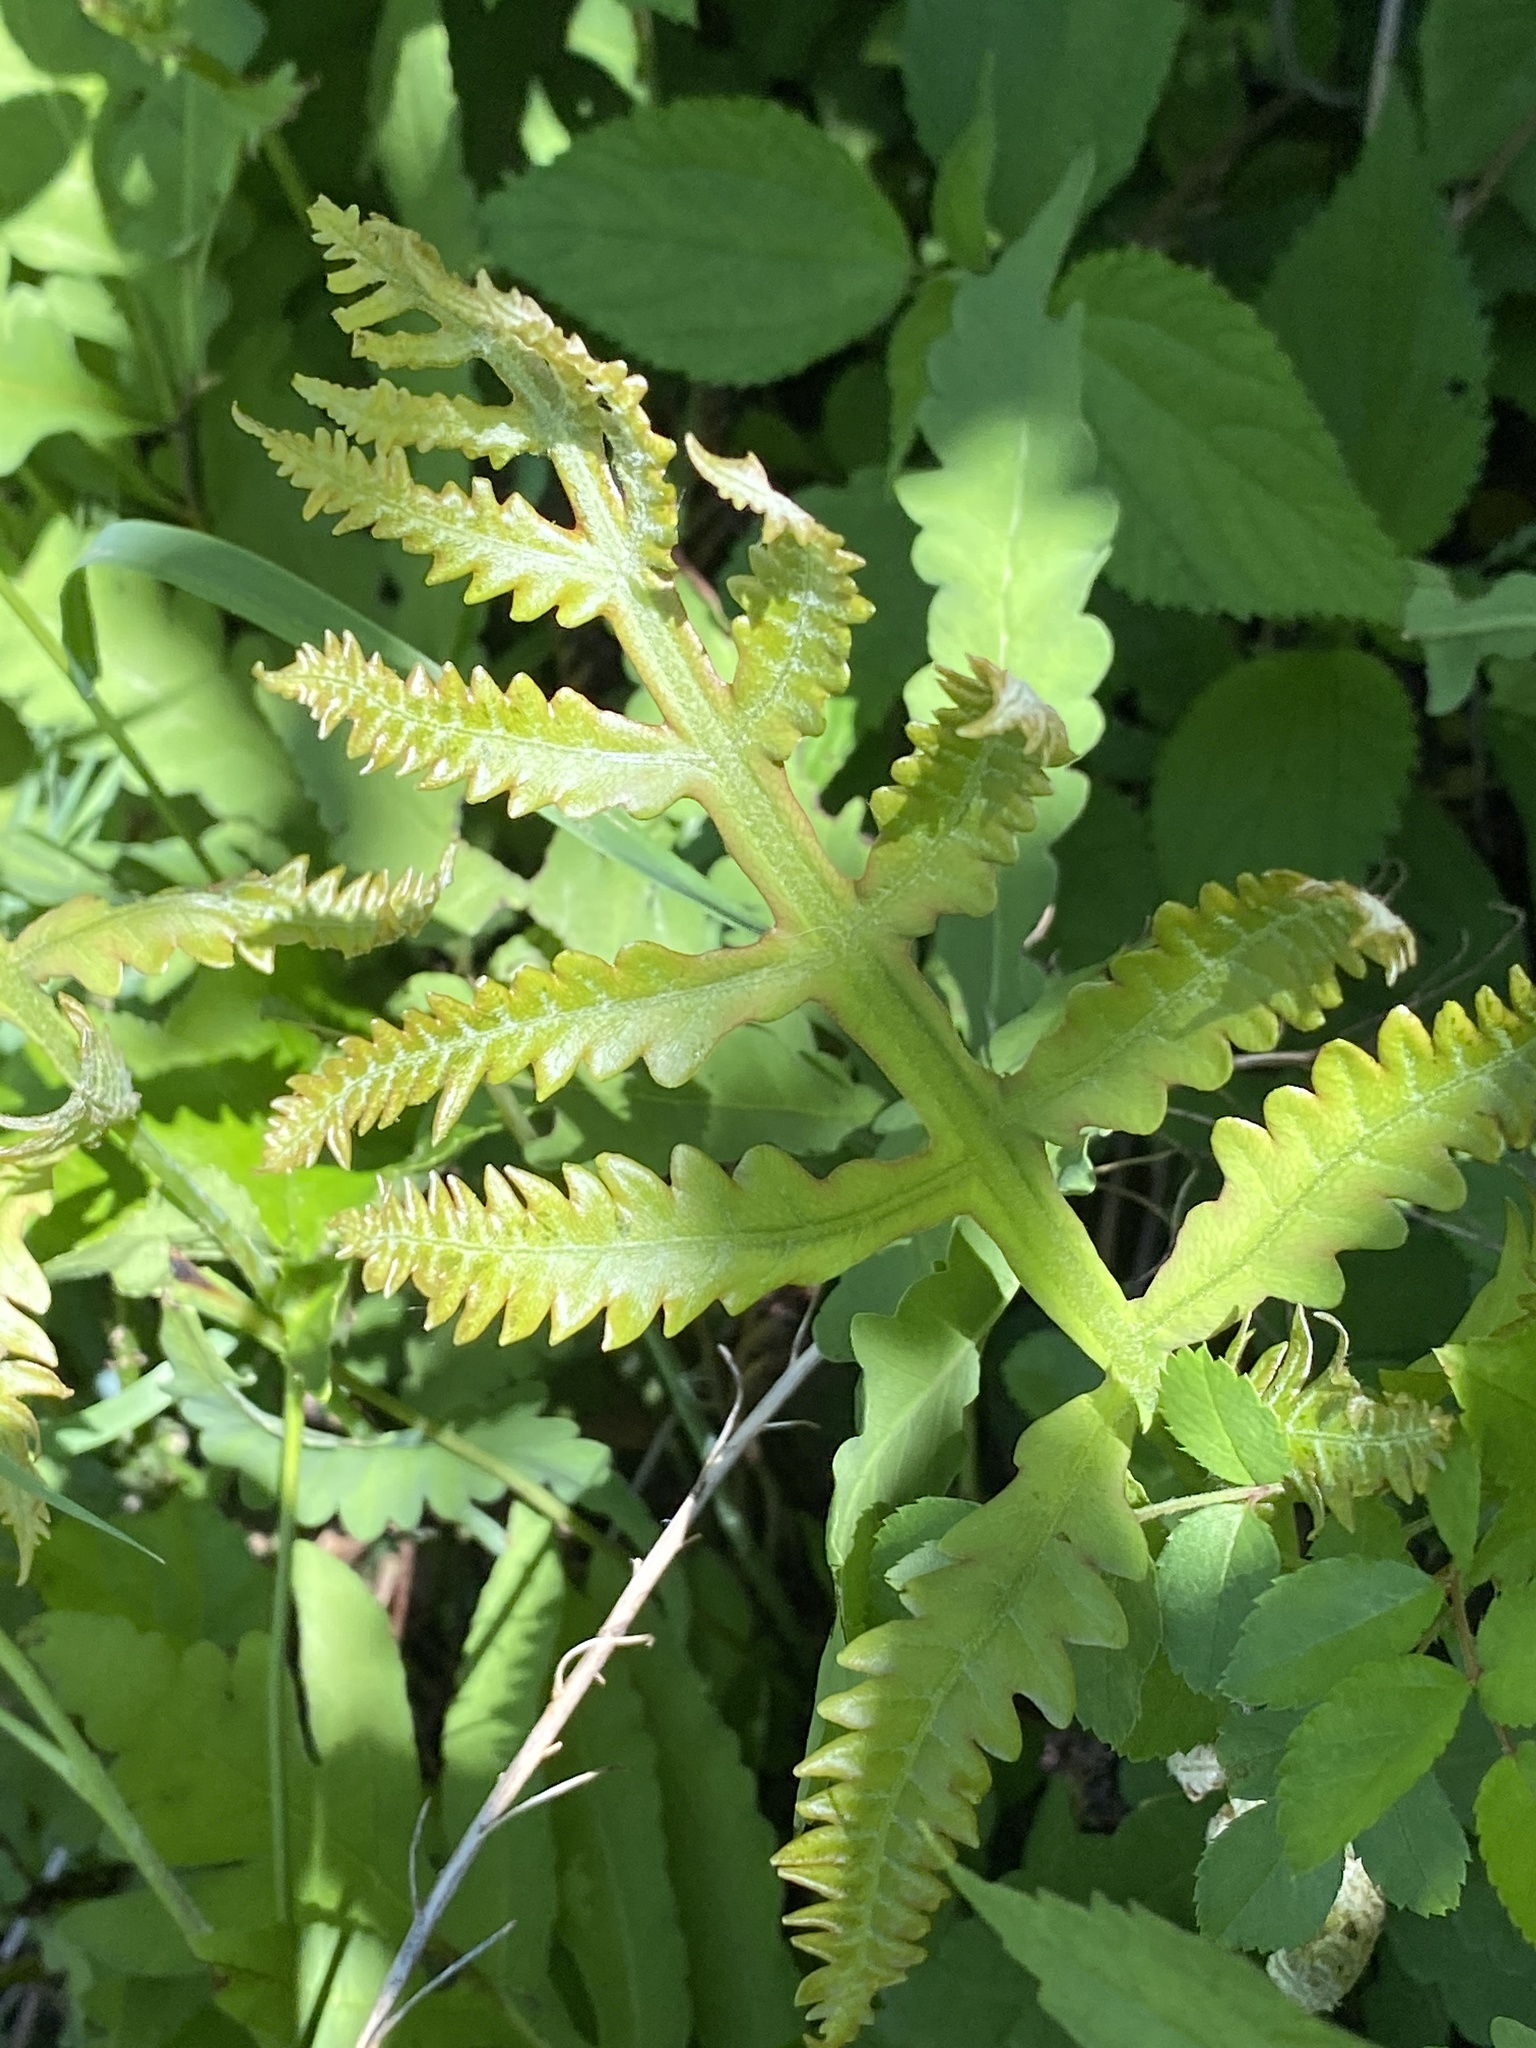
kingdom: Plantae
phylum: Tracheophyta
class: Polypodiopsida
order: Polypodiales
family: Onocleaceae
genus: Onoclea
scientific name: Onoclea sensibilis
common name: Sensitive fern
